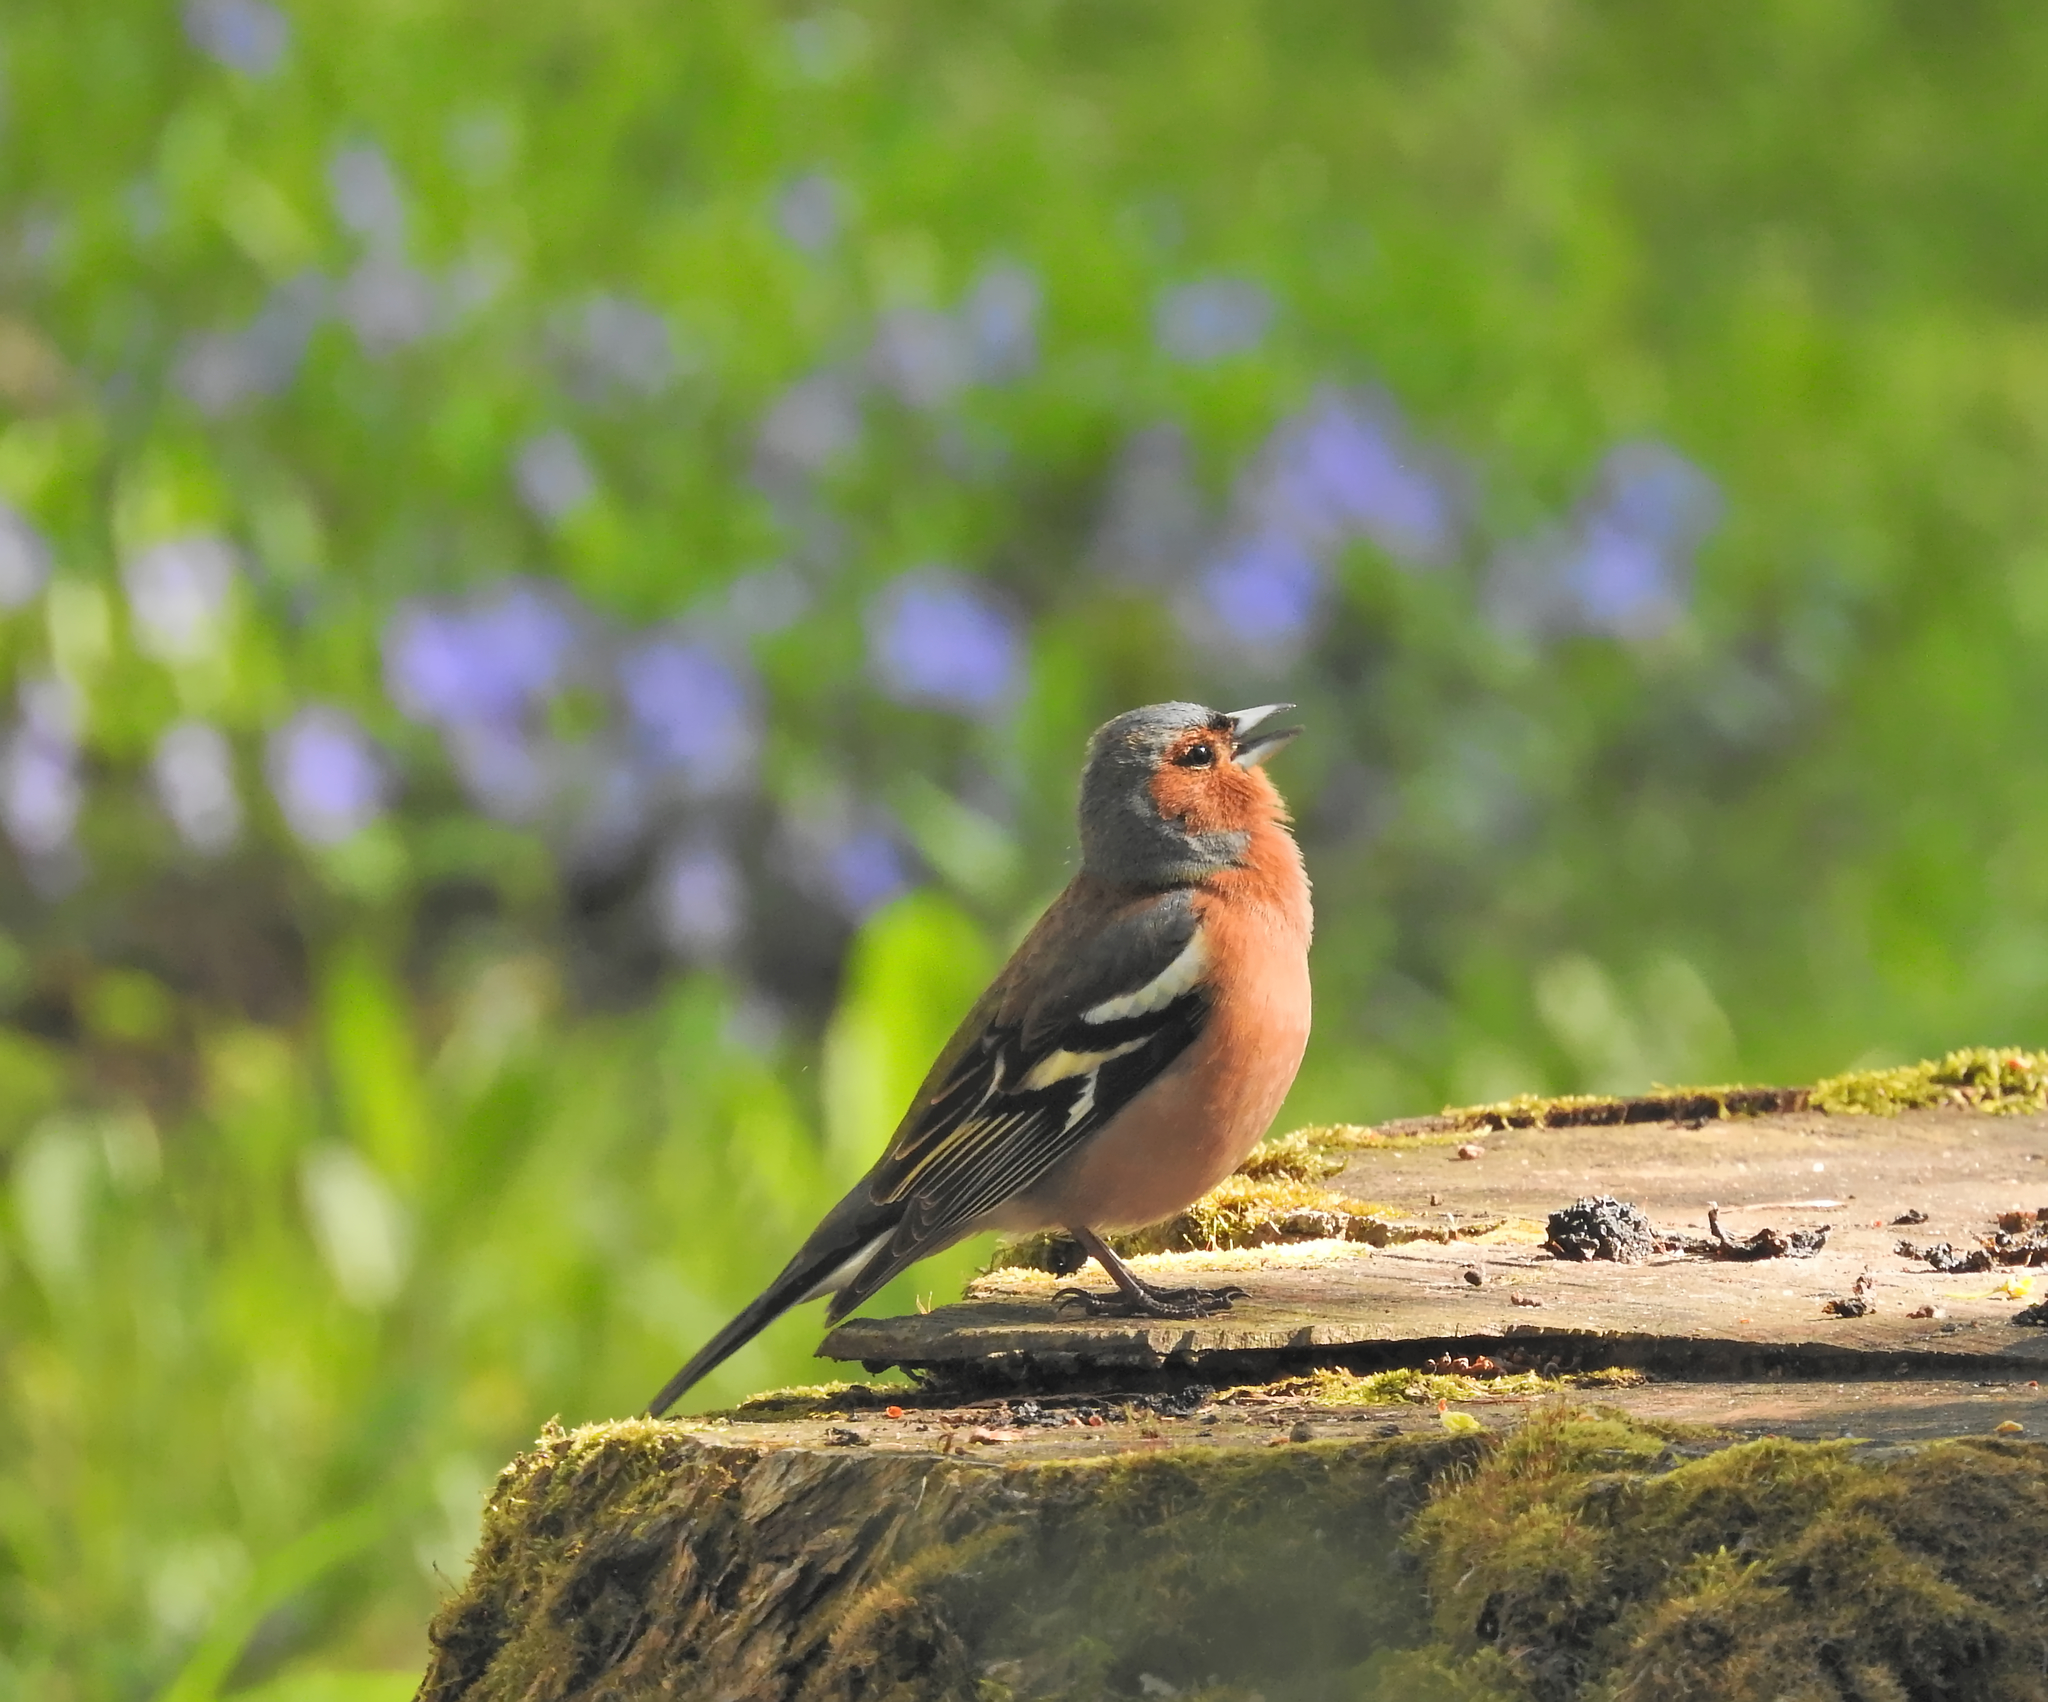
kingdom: Animalia
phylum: Chordata
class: Aves
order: Passeriformes
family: Fringillidae
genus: Fringilla
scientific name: Fringilla coelebs
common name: Common chaffinch
